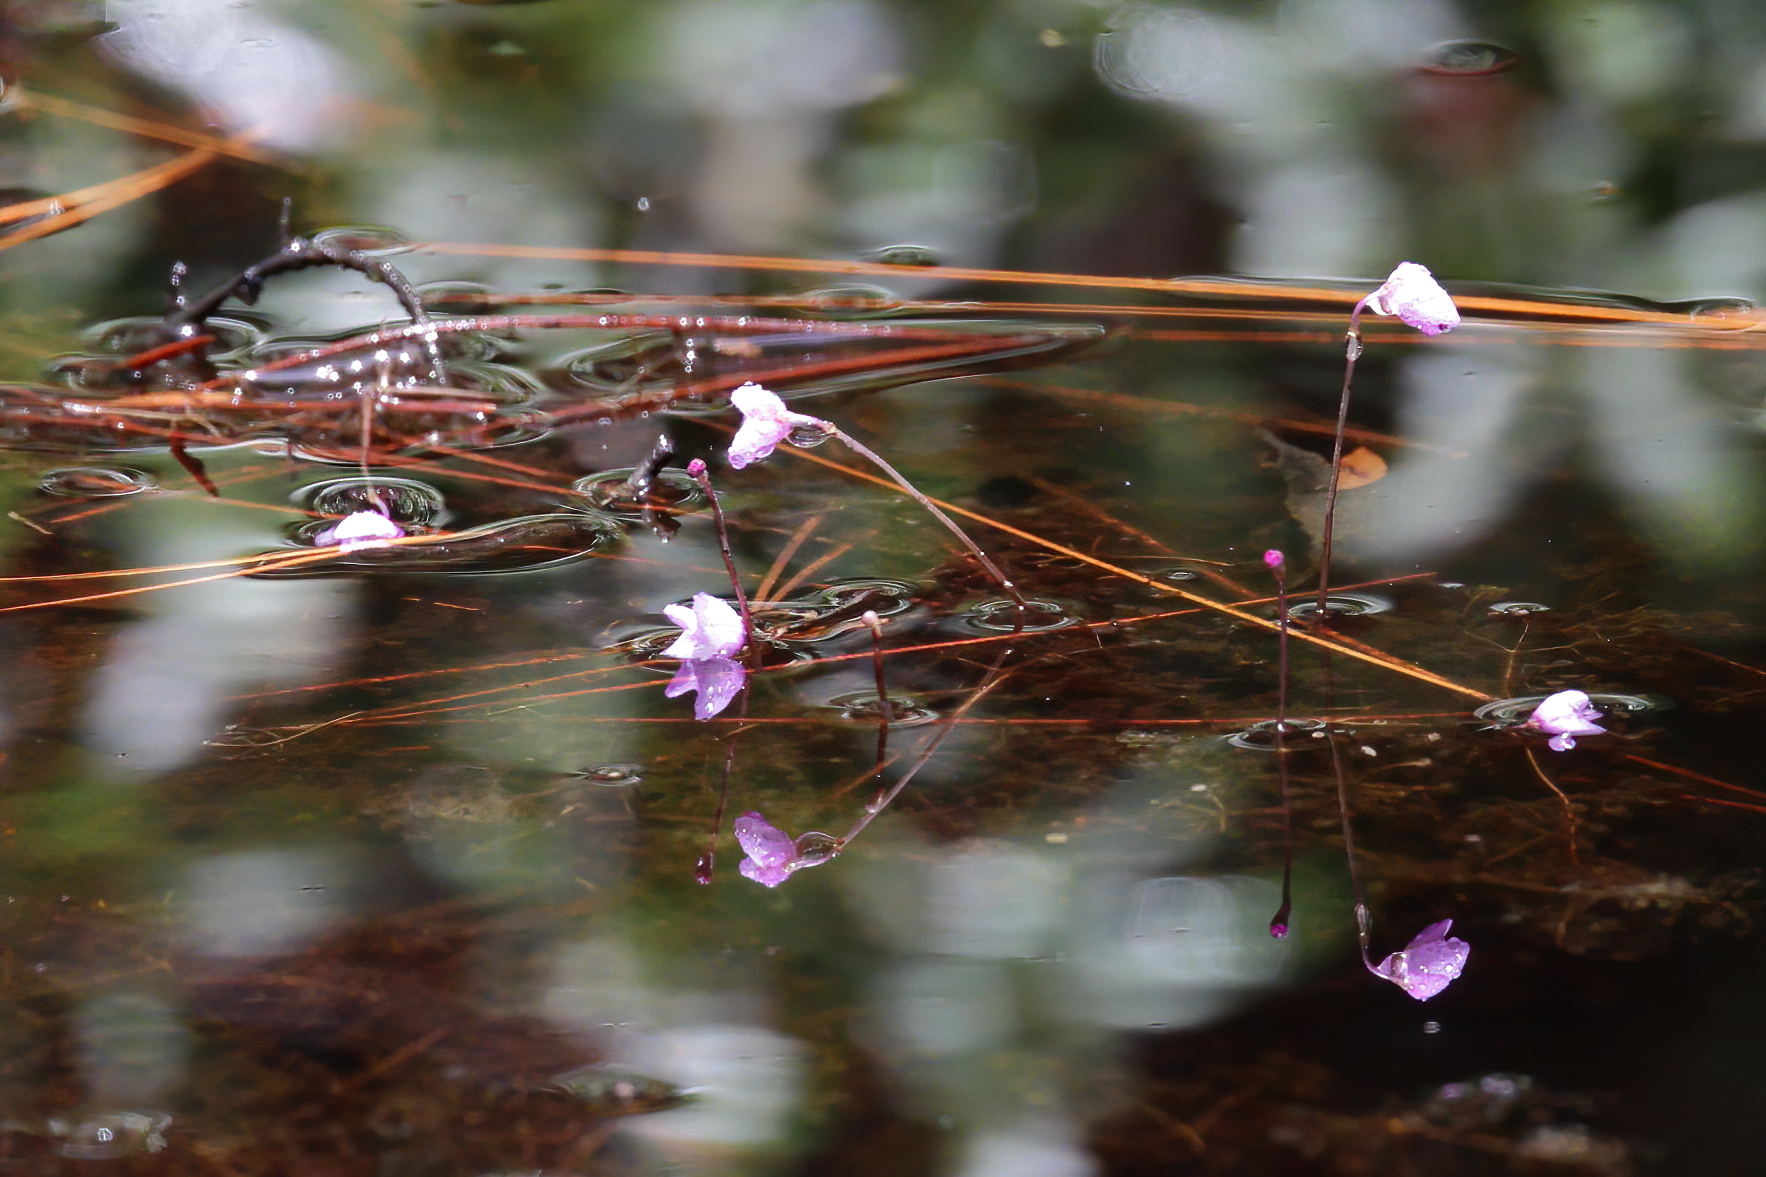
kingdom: Plantae
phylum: Tracheophyta
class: Magnoliopsida
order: Lamiales
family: Lentibulariaceae
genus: Utricularia
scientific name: Utricularia purpurea
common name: Eastern purple bladderwort
